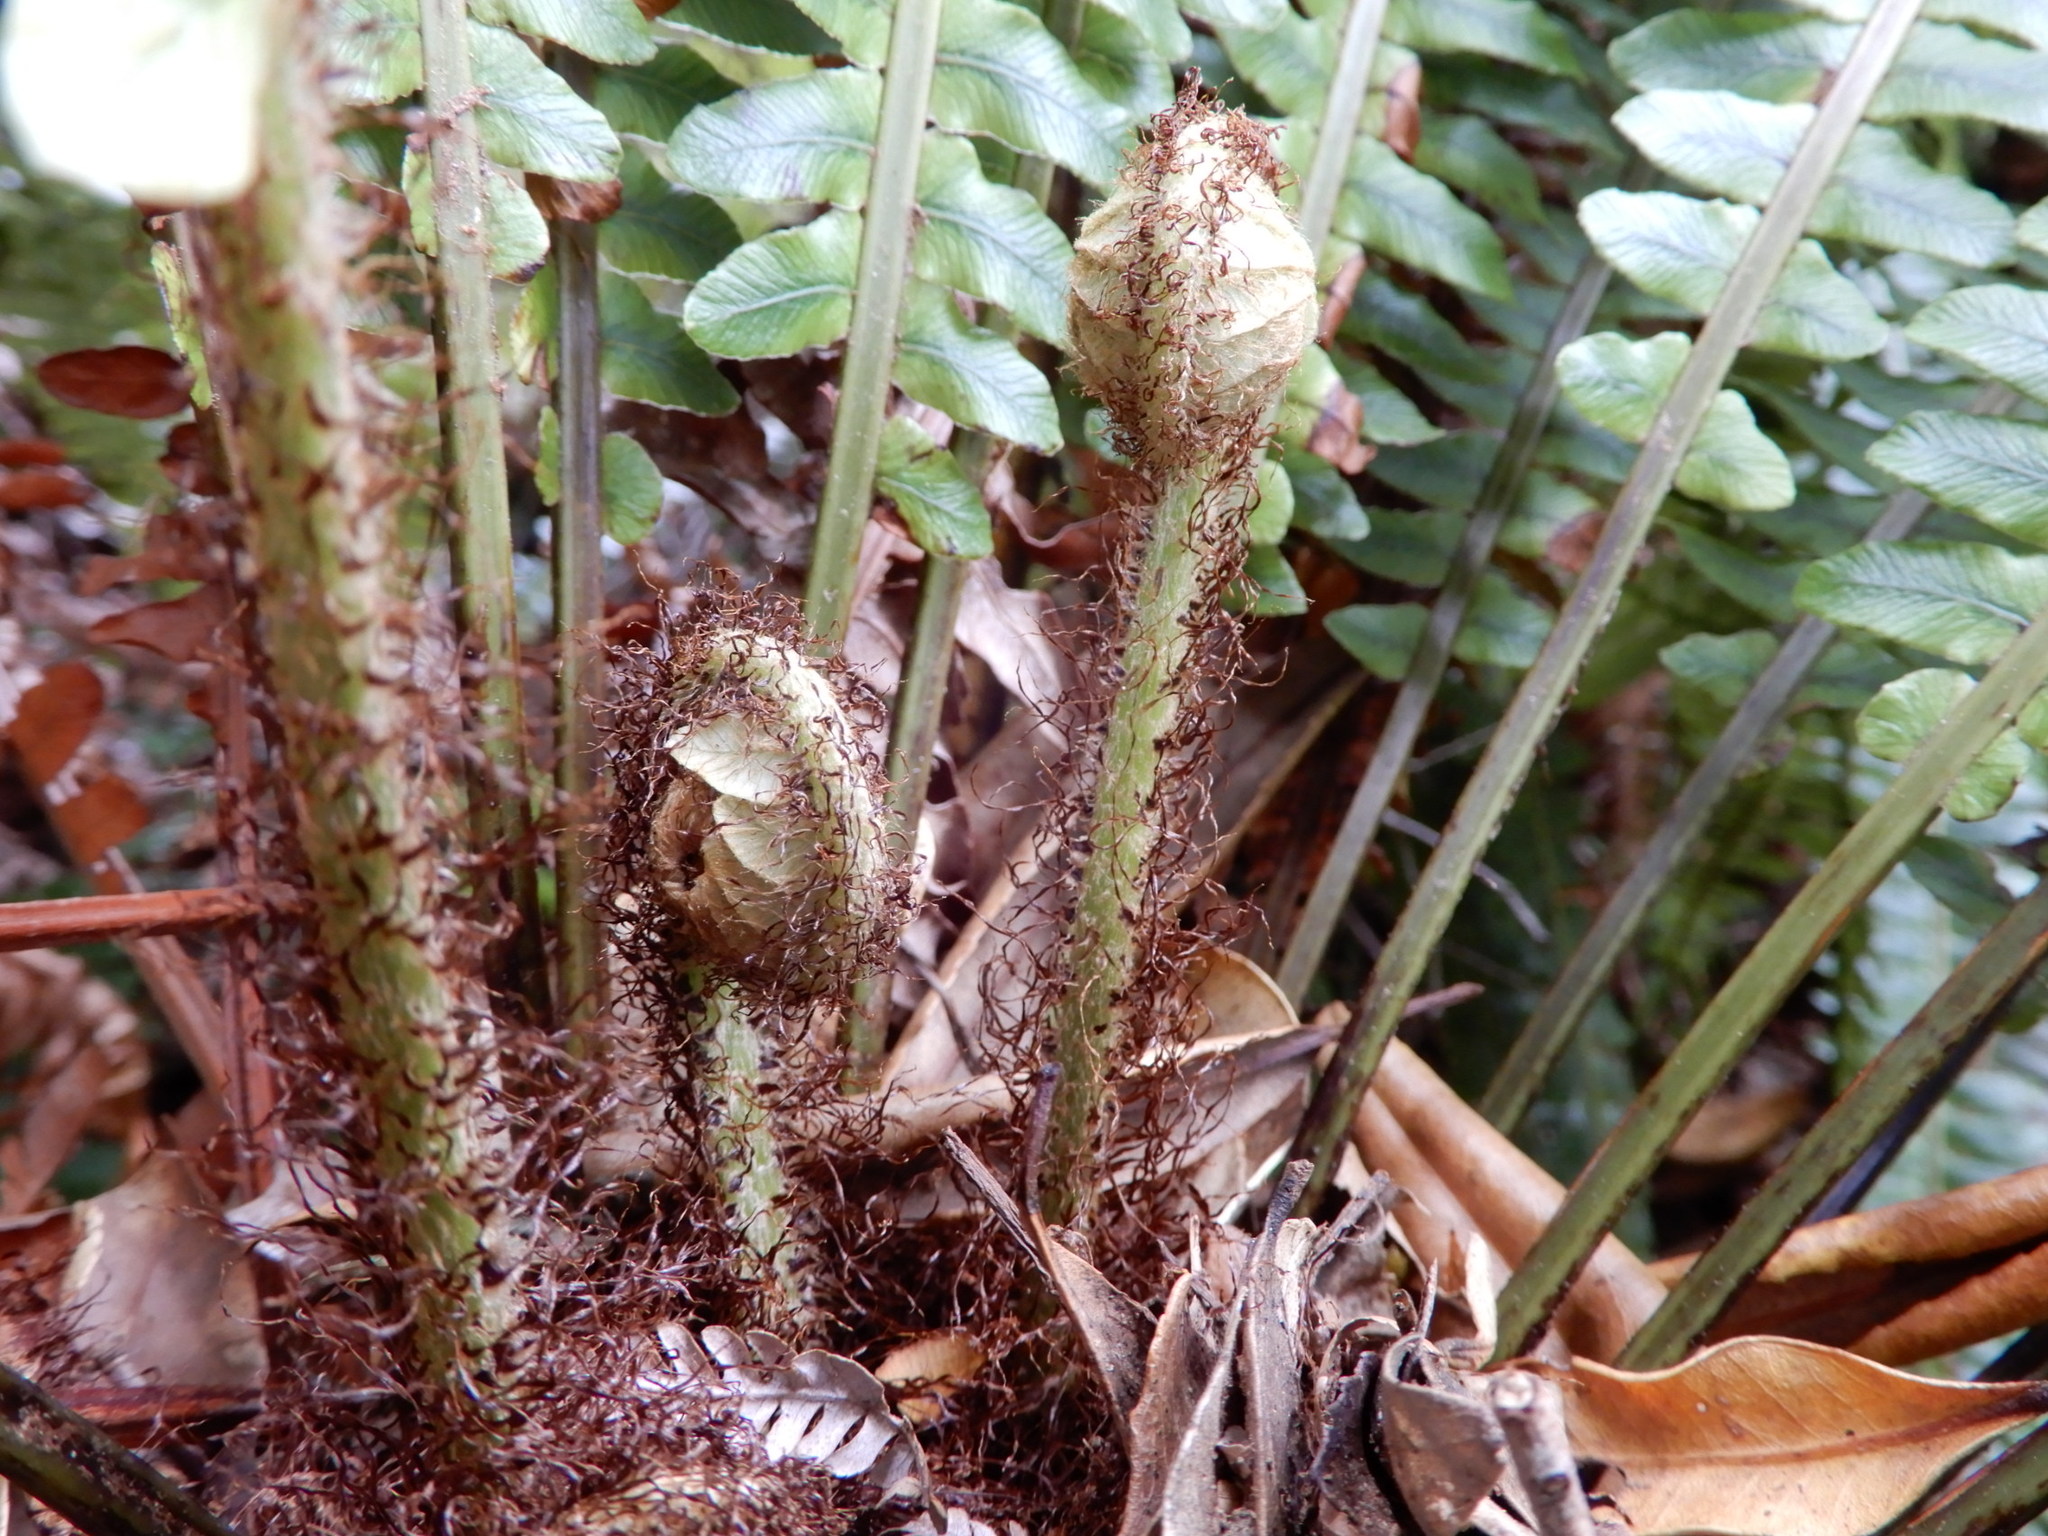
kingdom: Plantae
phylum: Tracheophyta
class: Polypodiopsida
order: Polypodiales
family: Blechnaceae
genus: Lomaria
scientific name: Lomaria discolor
